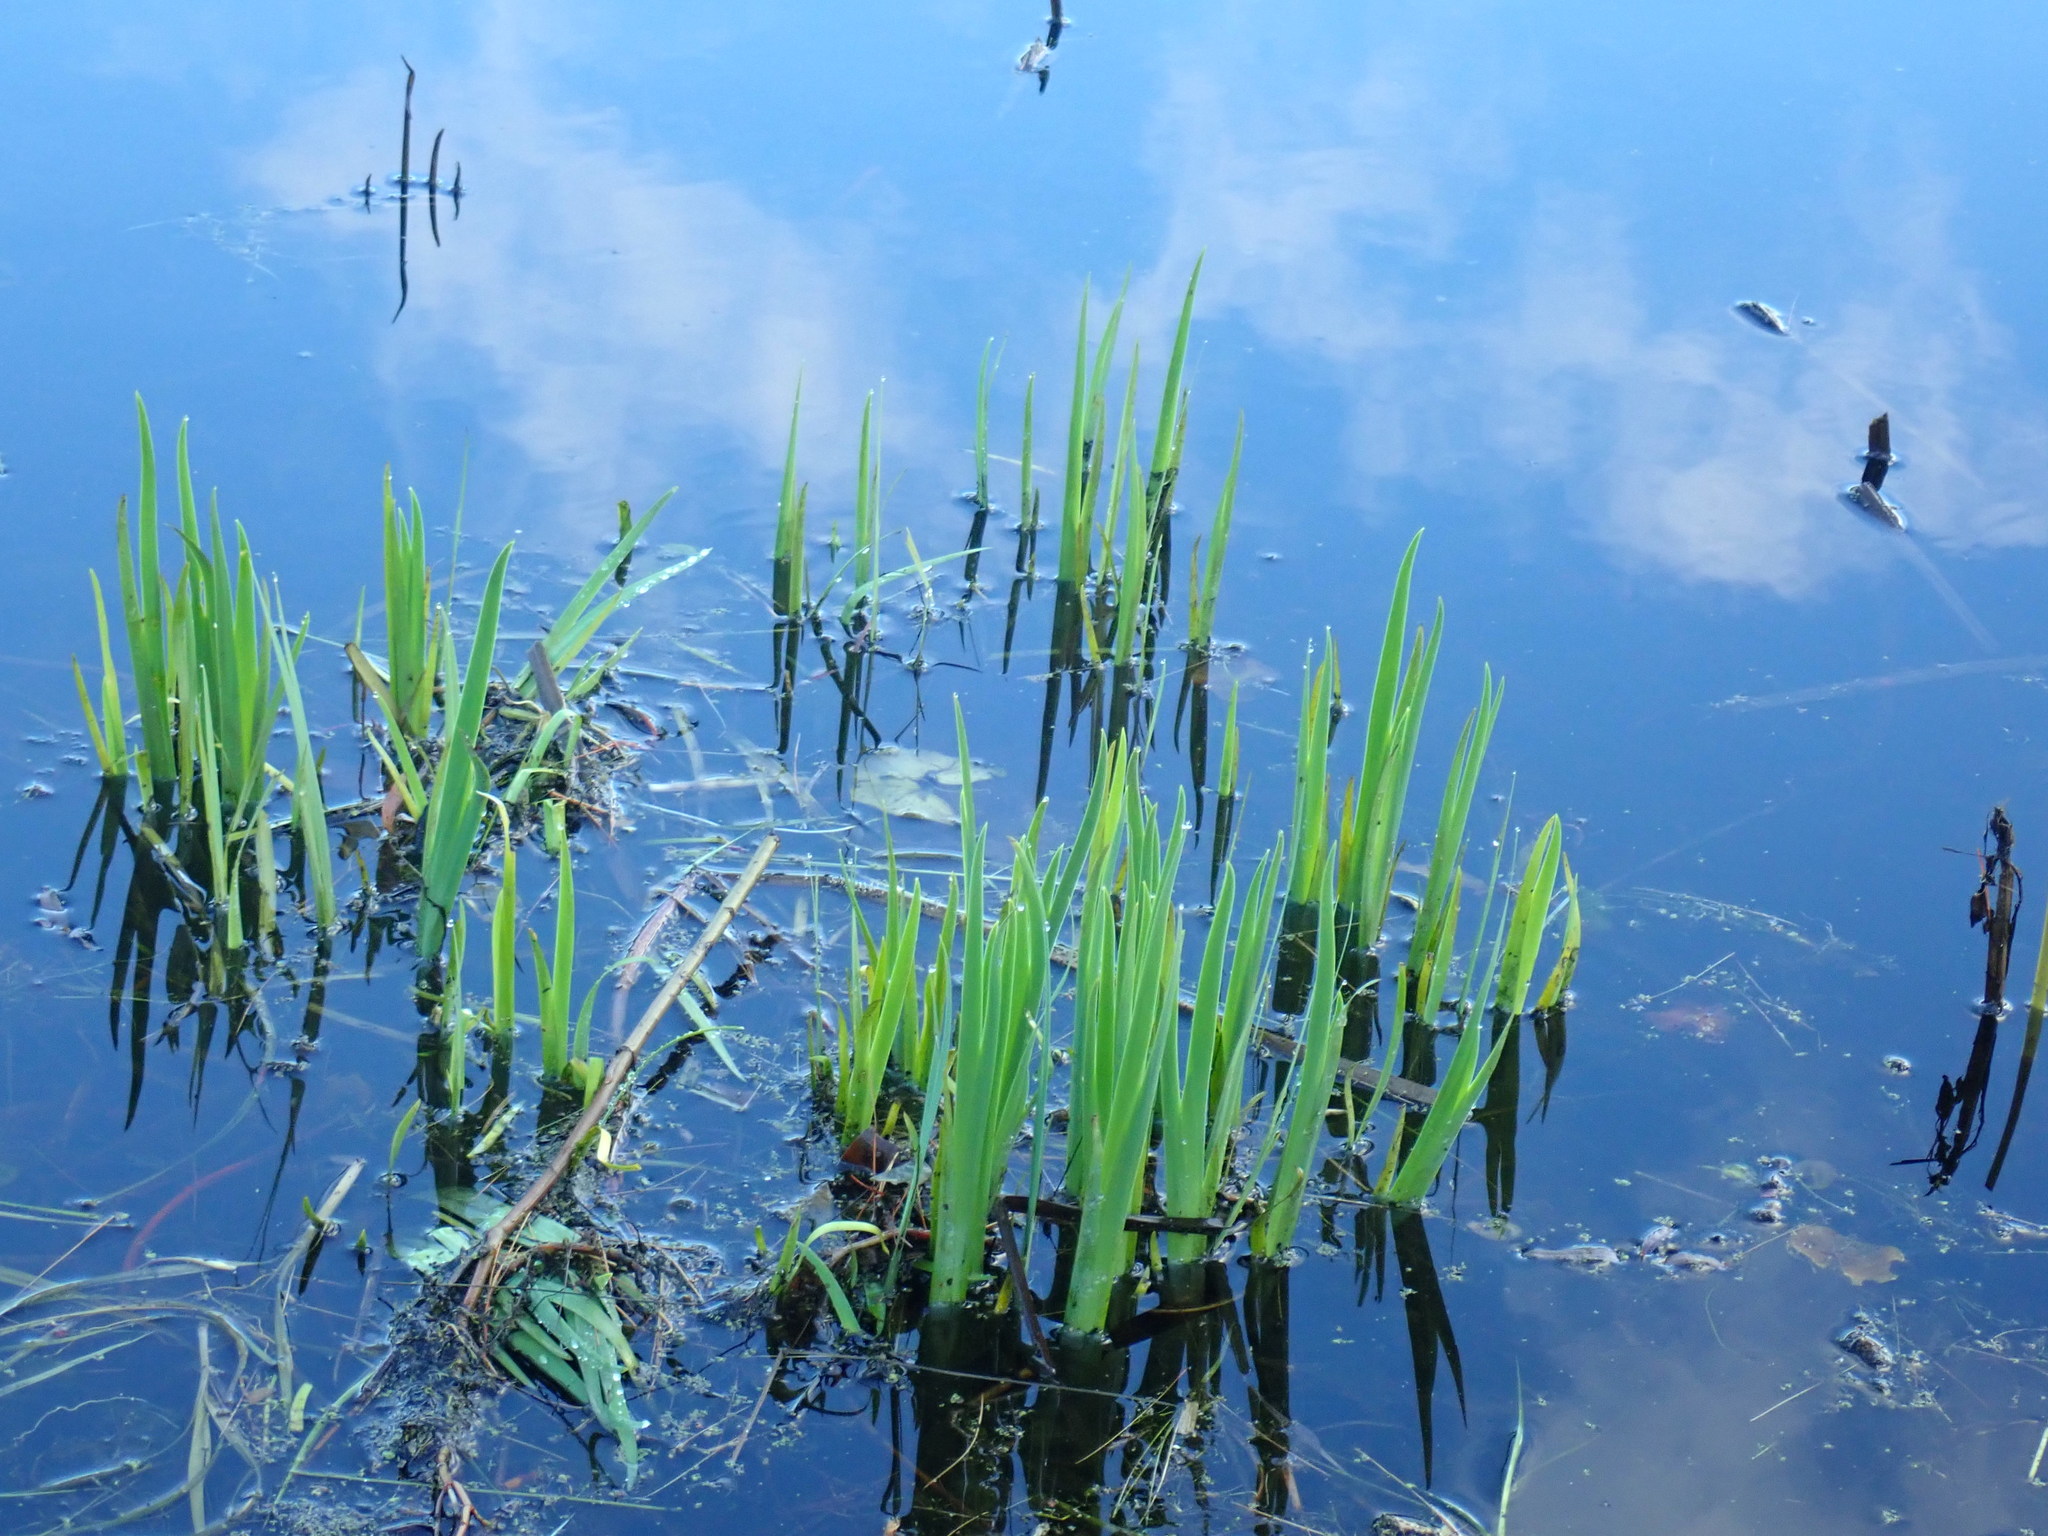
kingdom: Plantae
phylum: Tracheophyta
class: Liliopsida
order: Asparagales
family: Iridaceae
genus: Iris
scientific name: Iris
